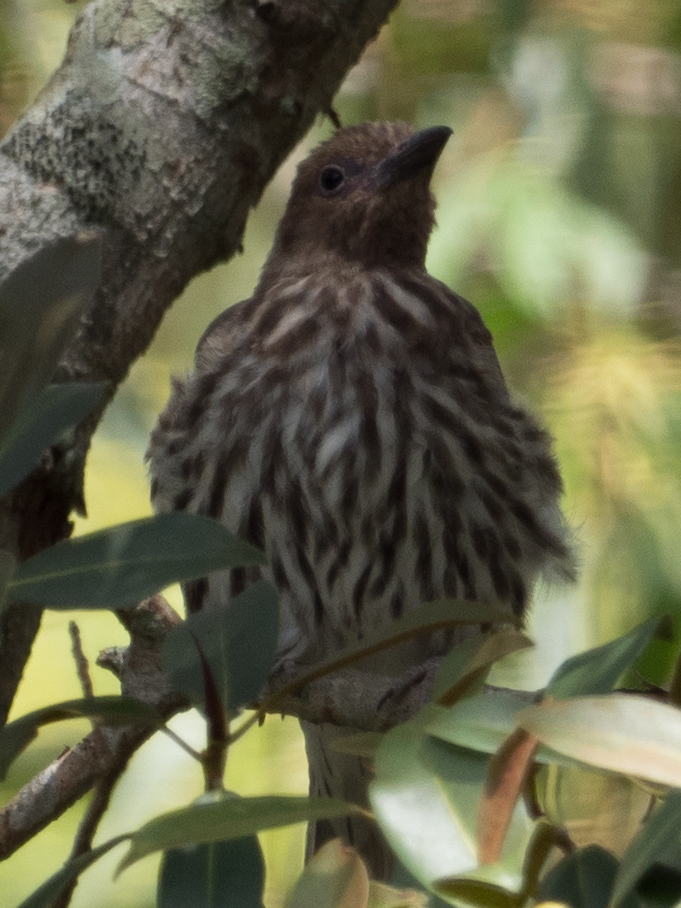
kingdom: Animalia
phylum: Chordata
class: Aves
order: Passeriformes
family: Oriolidae
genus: Oriolus
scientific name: Oriolus sagittatus
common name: Olive-backed oriole
